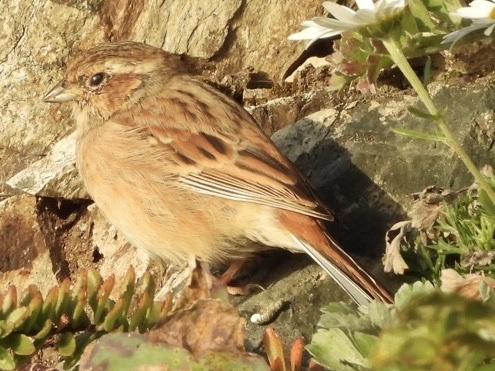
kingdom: Animalia
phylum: Chordata
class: Aves
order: Passeriformes
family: Emberizidae
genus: Emberiza
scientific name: Emberiza cioides
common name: Meadow bunting
